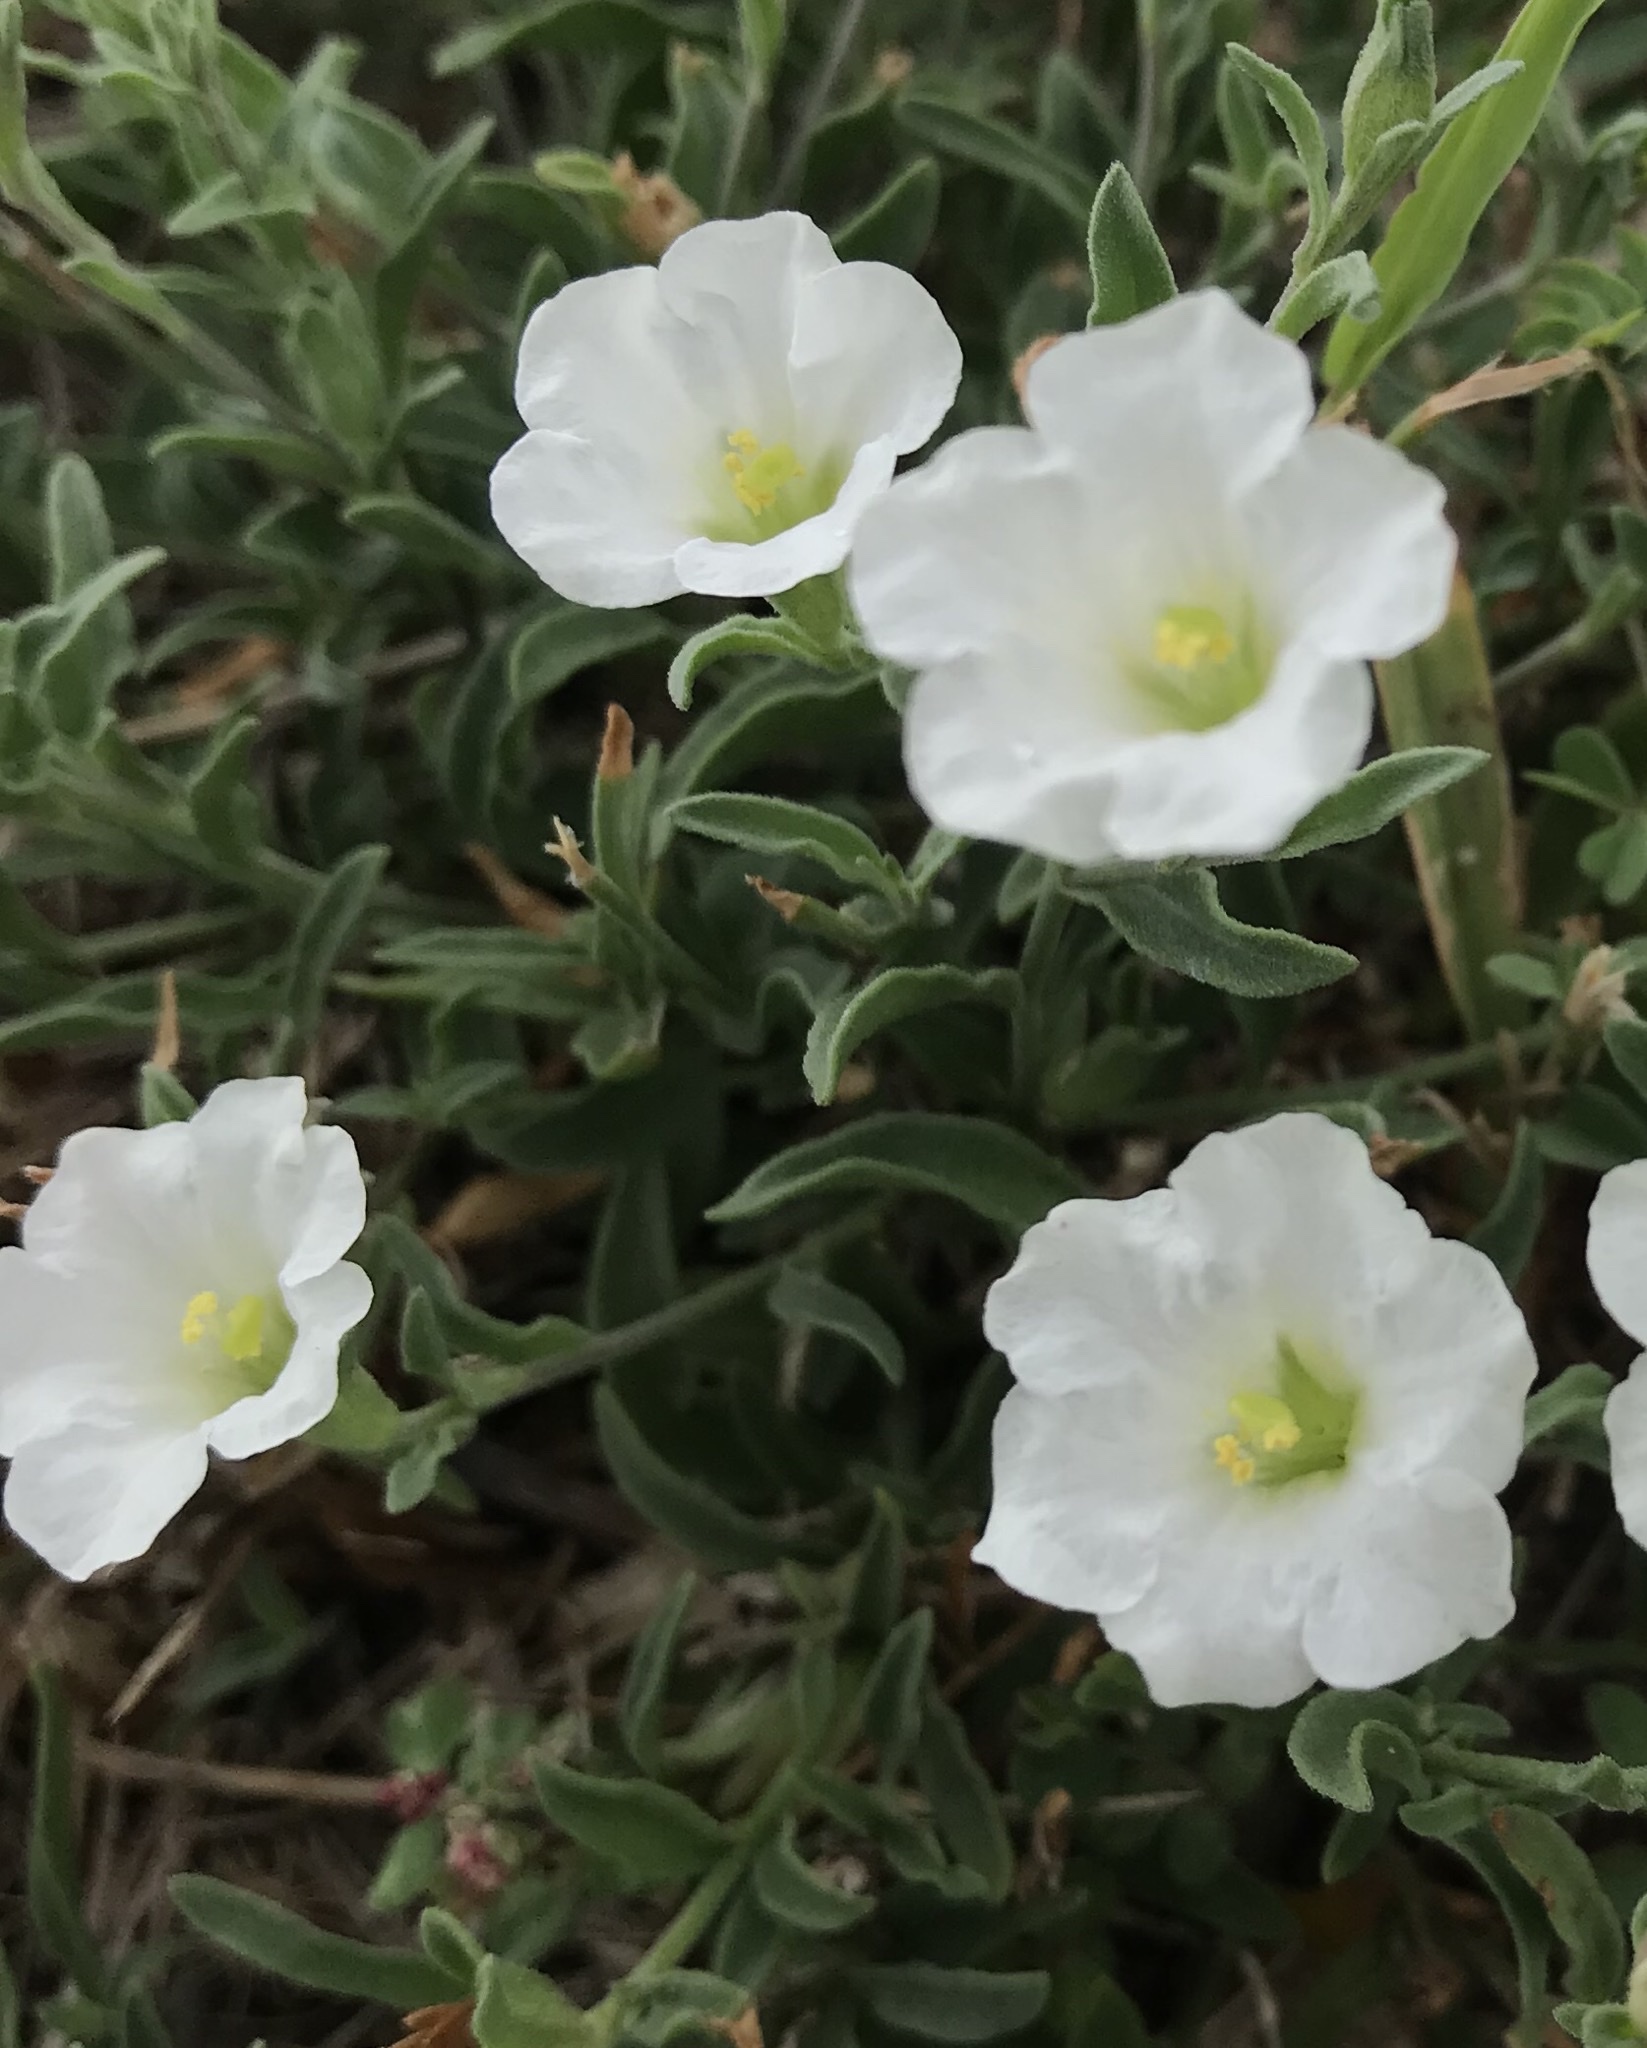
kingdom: Plantae
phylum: Tracheophyta
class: Magnoliopsida
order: Solanales
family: Solanaceae
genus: Salpiglossis
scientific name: Salpiglossis erecta
